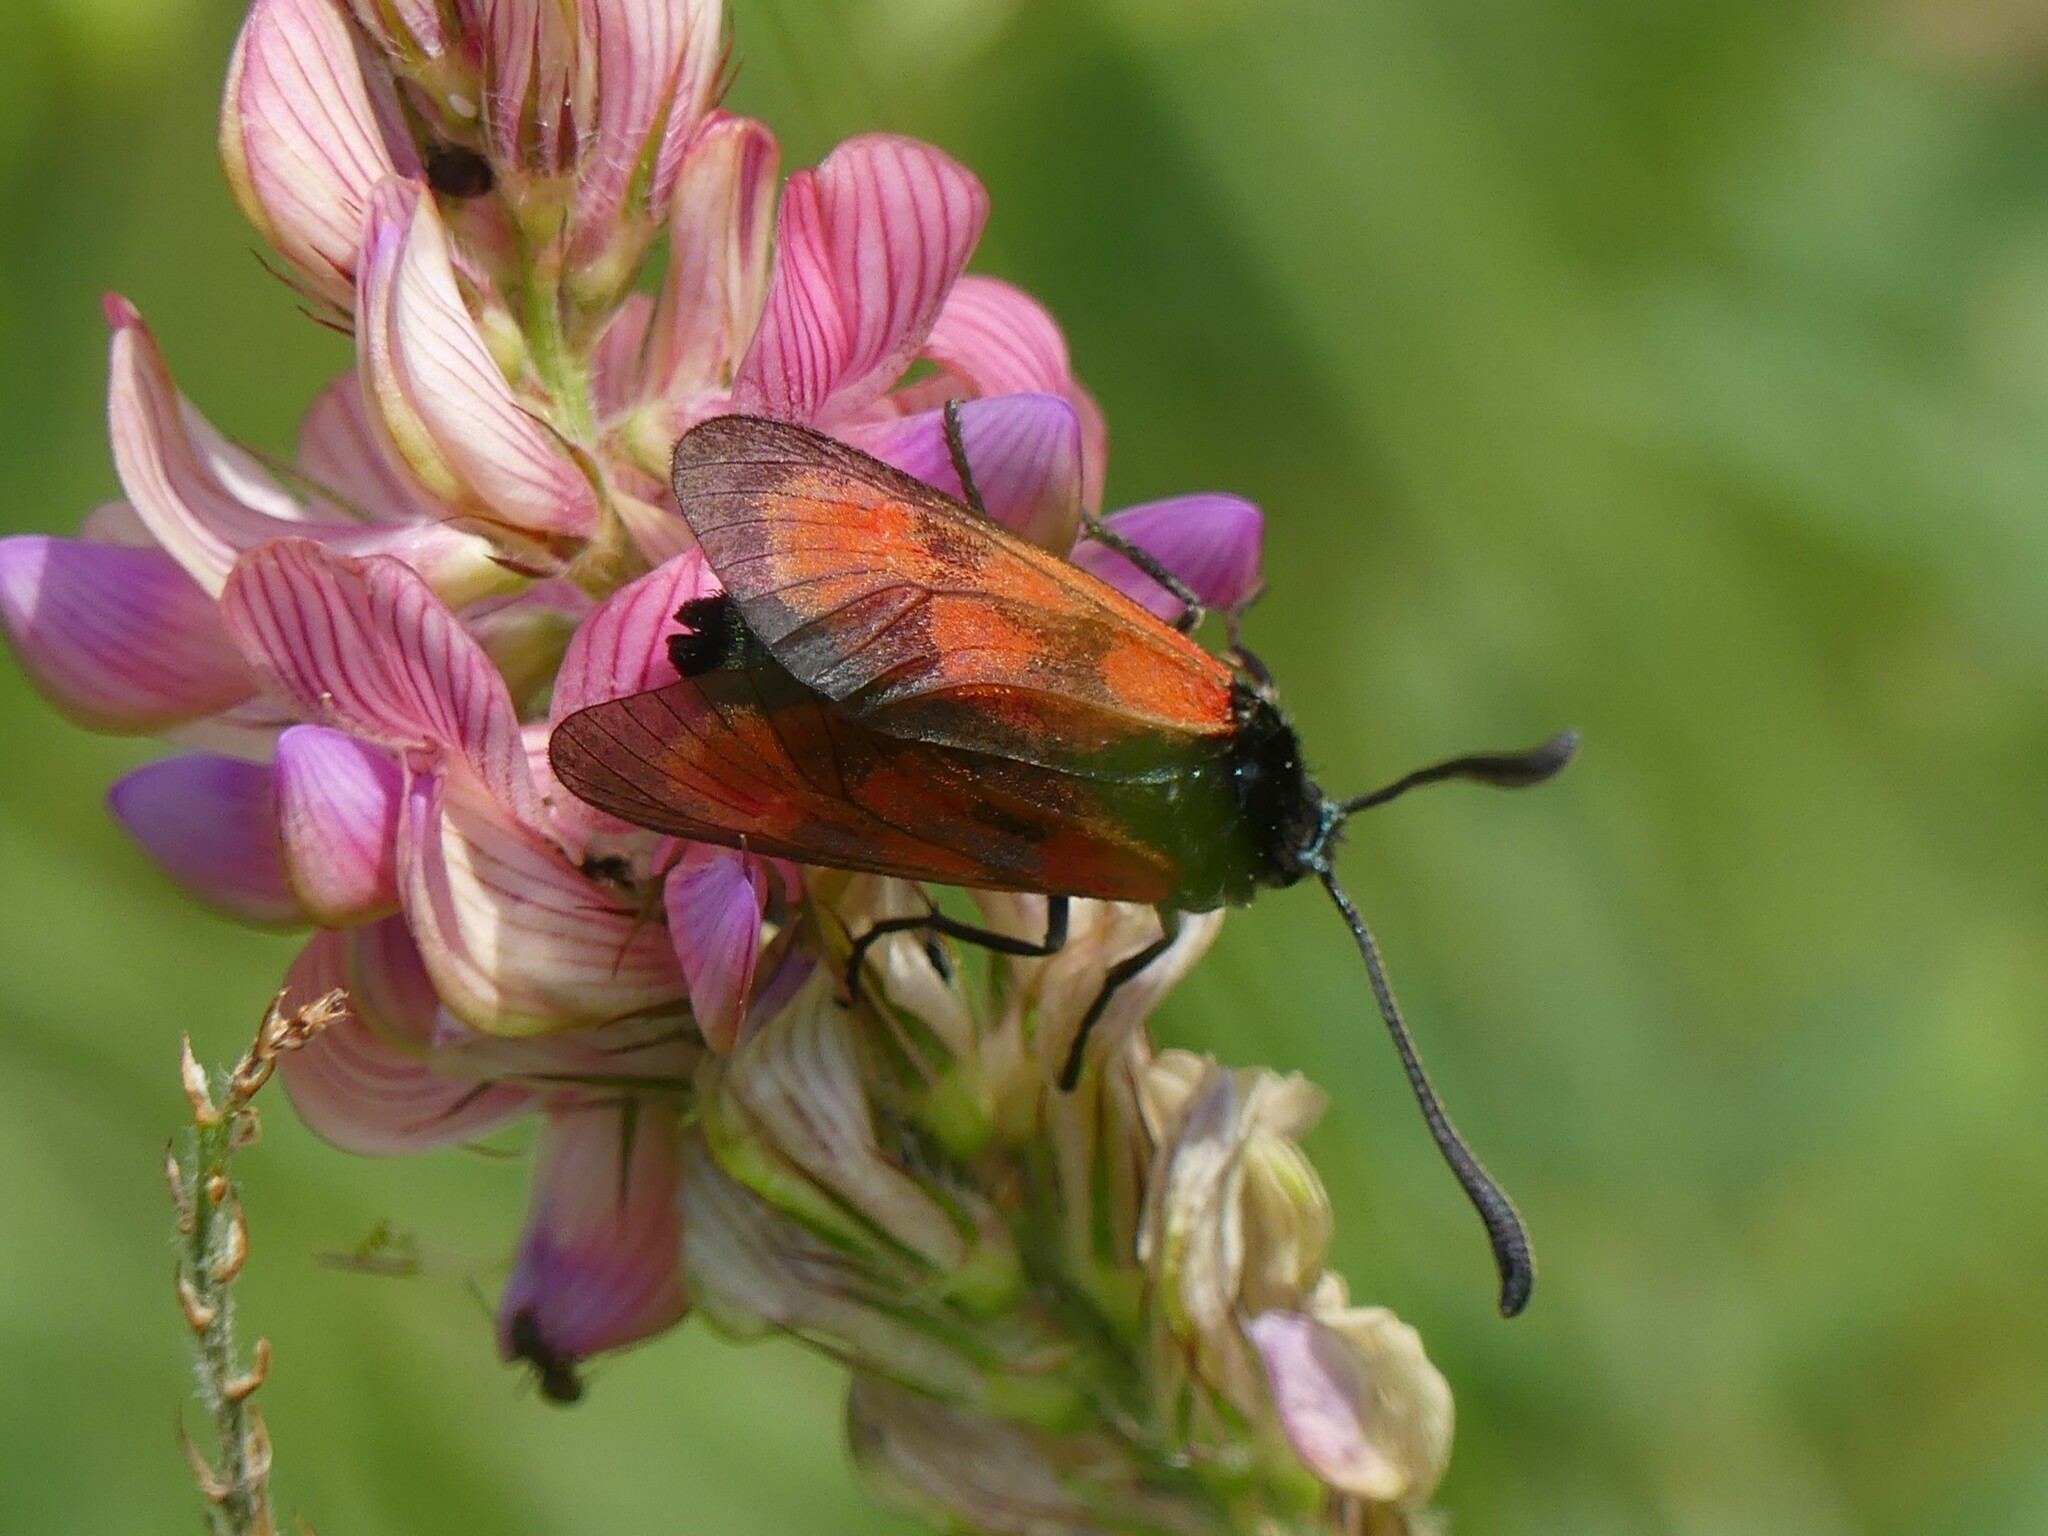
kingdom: Animalia
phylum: Arthropoda
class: Insecta
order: Lepidoptera
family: Zygaenidae
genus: Zygaena
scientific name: Zygaena loti
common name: Slender scotch burnet
